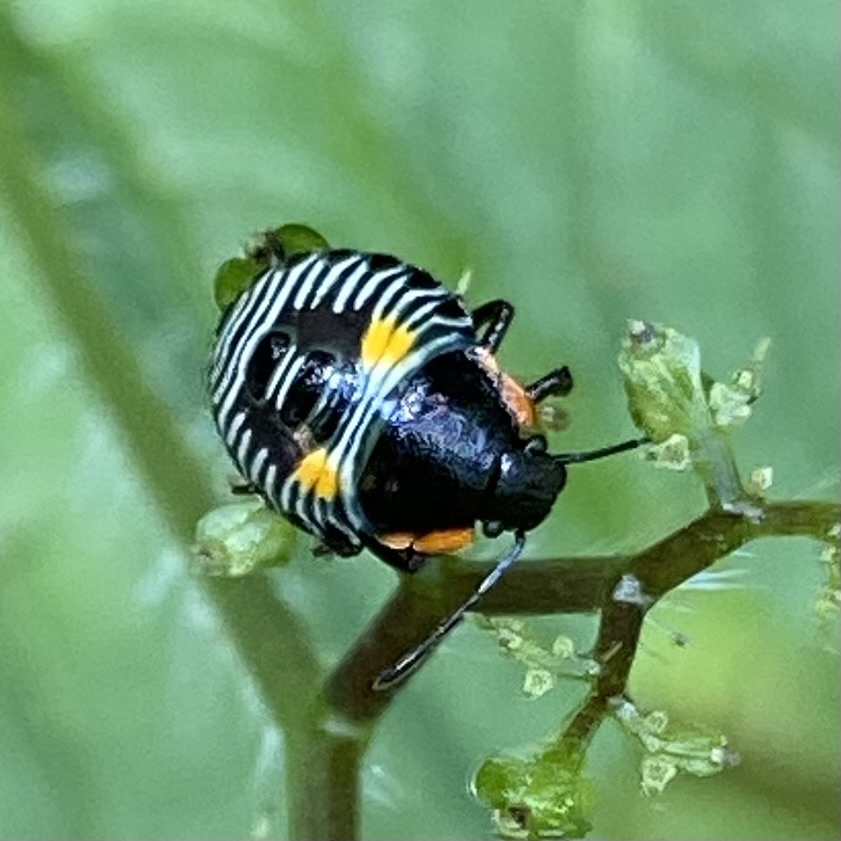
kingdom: Animalia
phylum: Arthropoda
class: Insecta
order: Hemiptera
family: Pentatomidae
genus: Chinavia
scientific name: Chinavia hilaris
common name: Green stink bug
